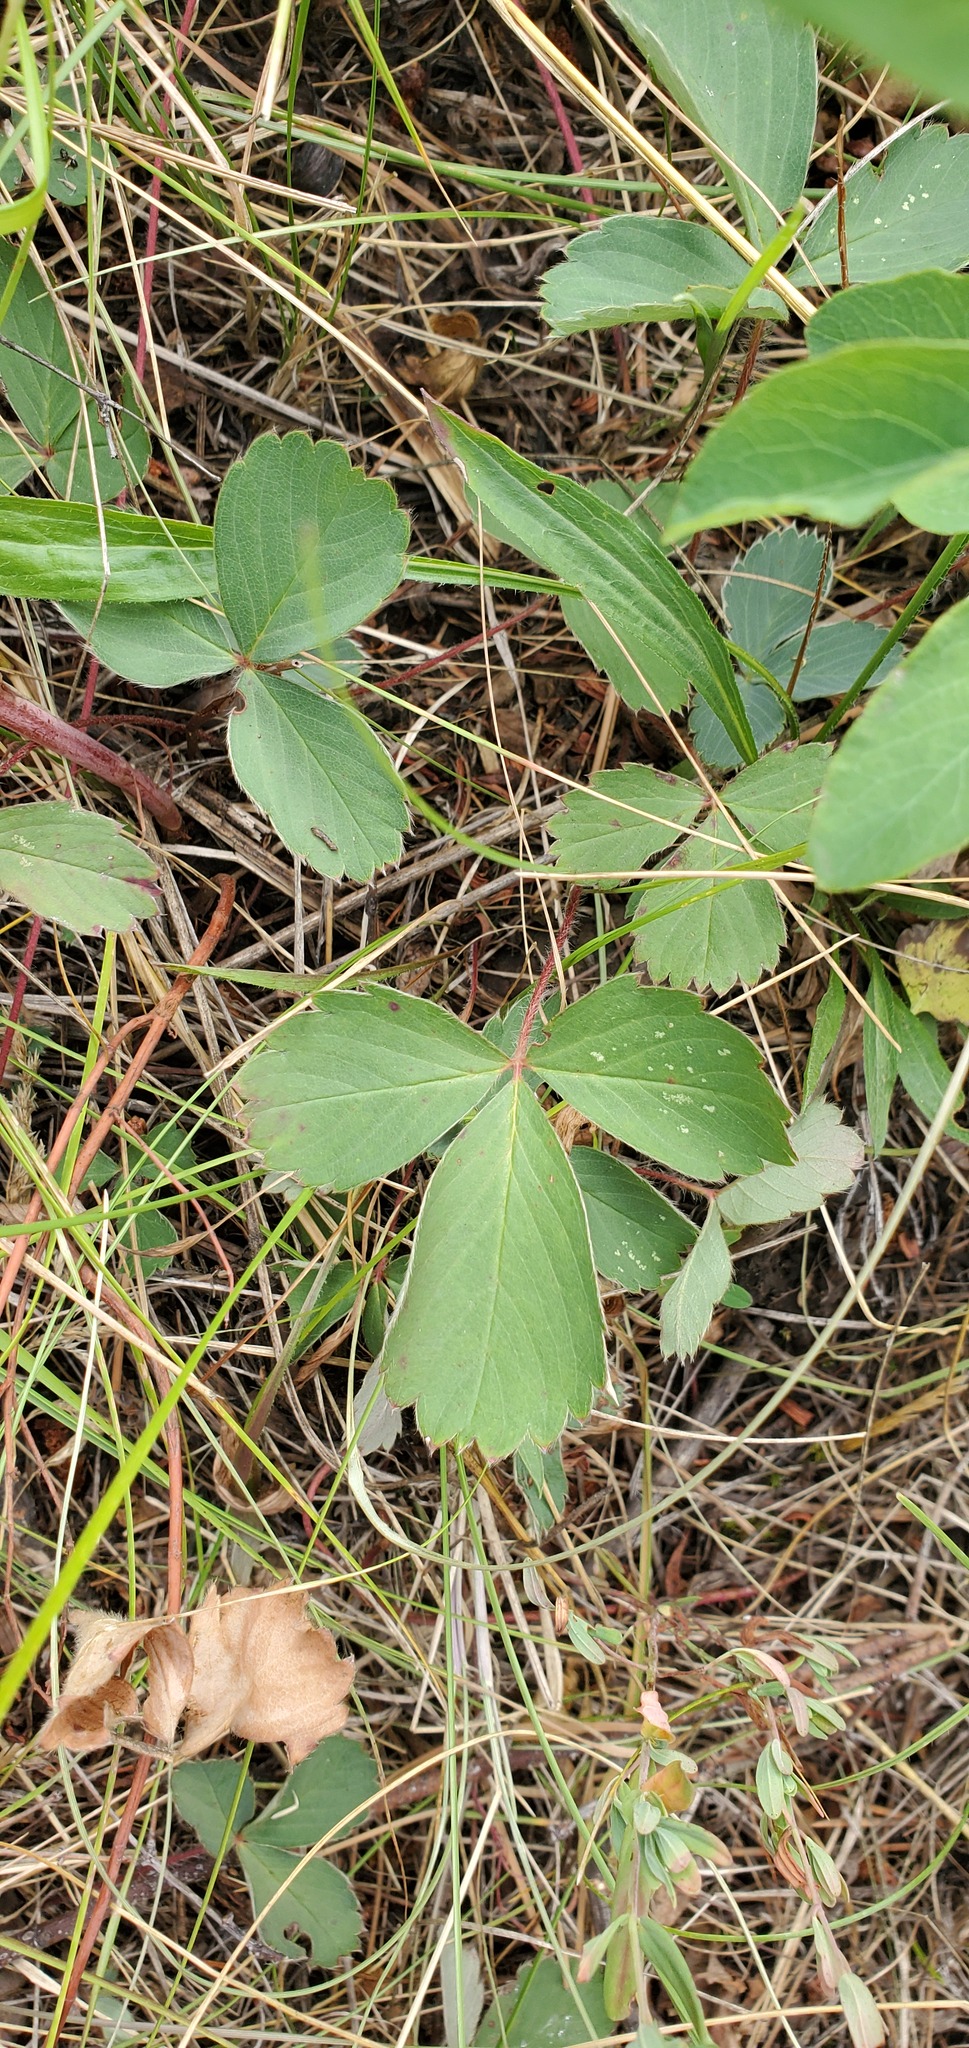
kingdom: Plantae
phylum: Tracheophyta
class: Magnoliopsida
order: Rosales
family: Rosaceae
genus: Fragaria
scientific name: Fragaria virginiana
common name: Thickleaved wild strawberry
